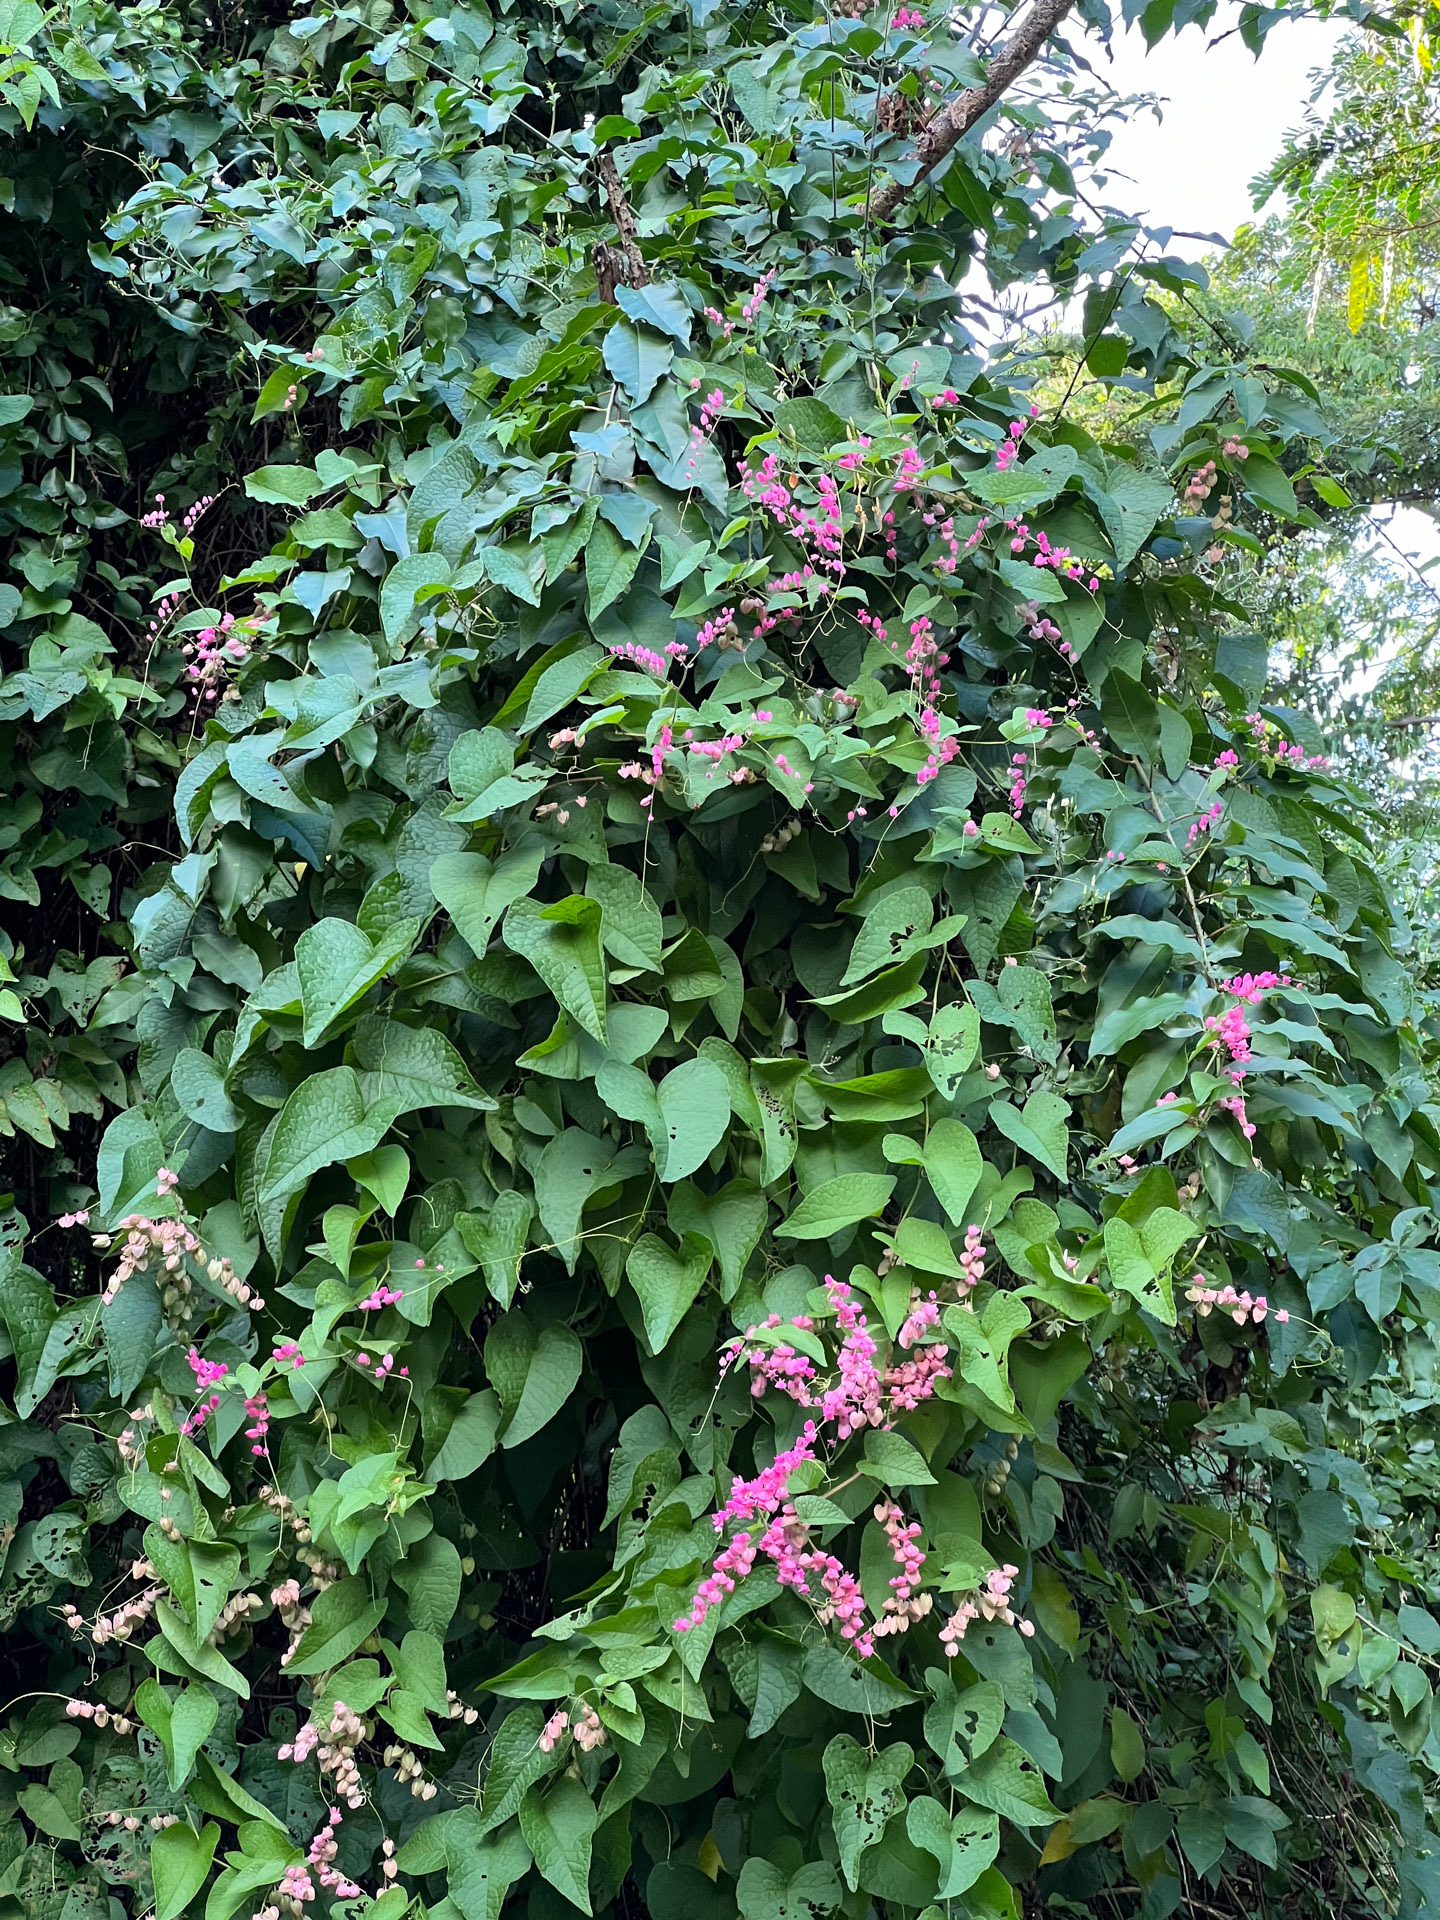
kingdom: Plantae
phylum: Tracheophyta
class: Magnoliopsida
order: Caryophyllales
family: Polygonaceae
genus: Antigonon
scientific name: Antigonon leptopus
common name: Coral vine
